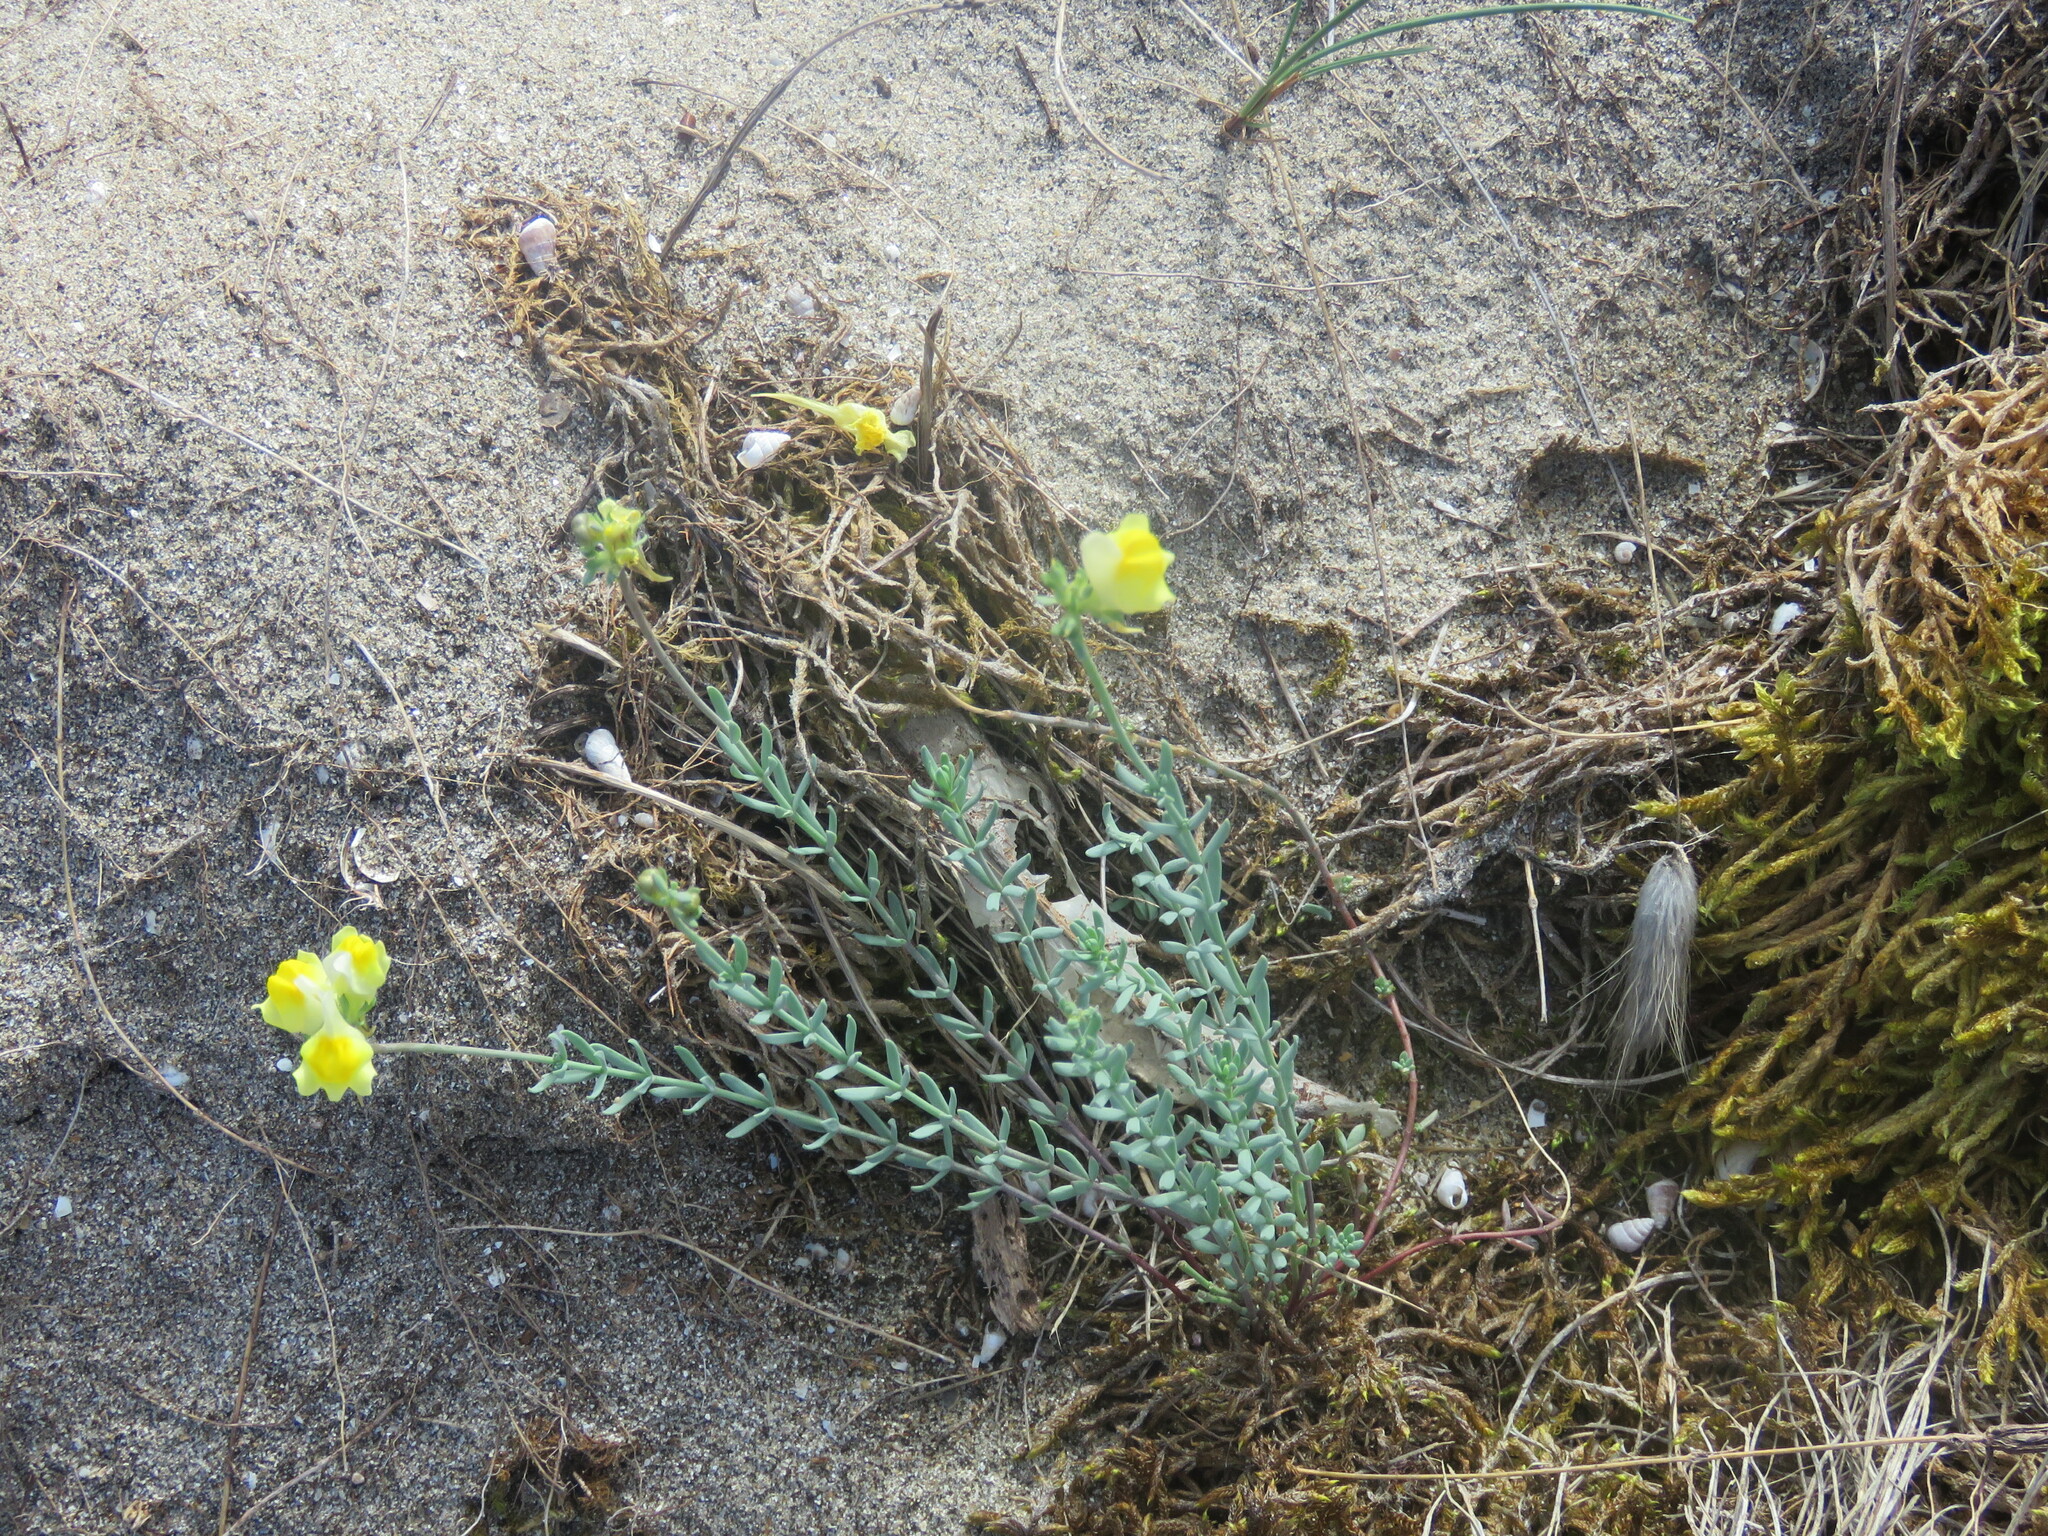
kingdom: Plantae
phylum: Tracheophyta
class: Magnoliopsida
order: Lamiales
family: Plantaginaceae
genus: Linaria
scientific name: Linaria polygalifolia
